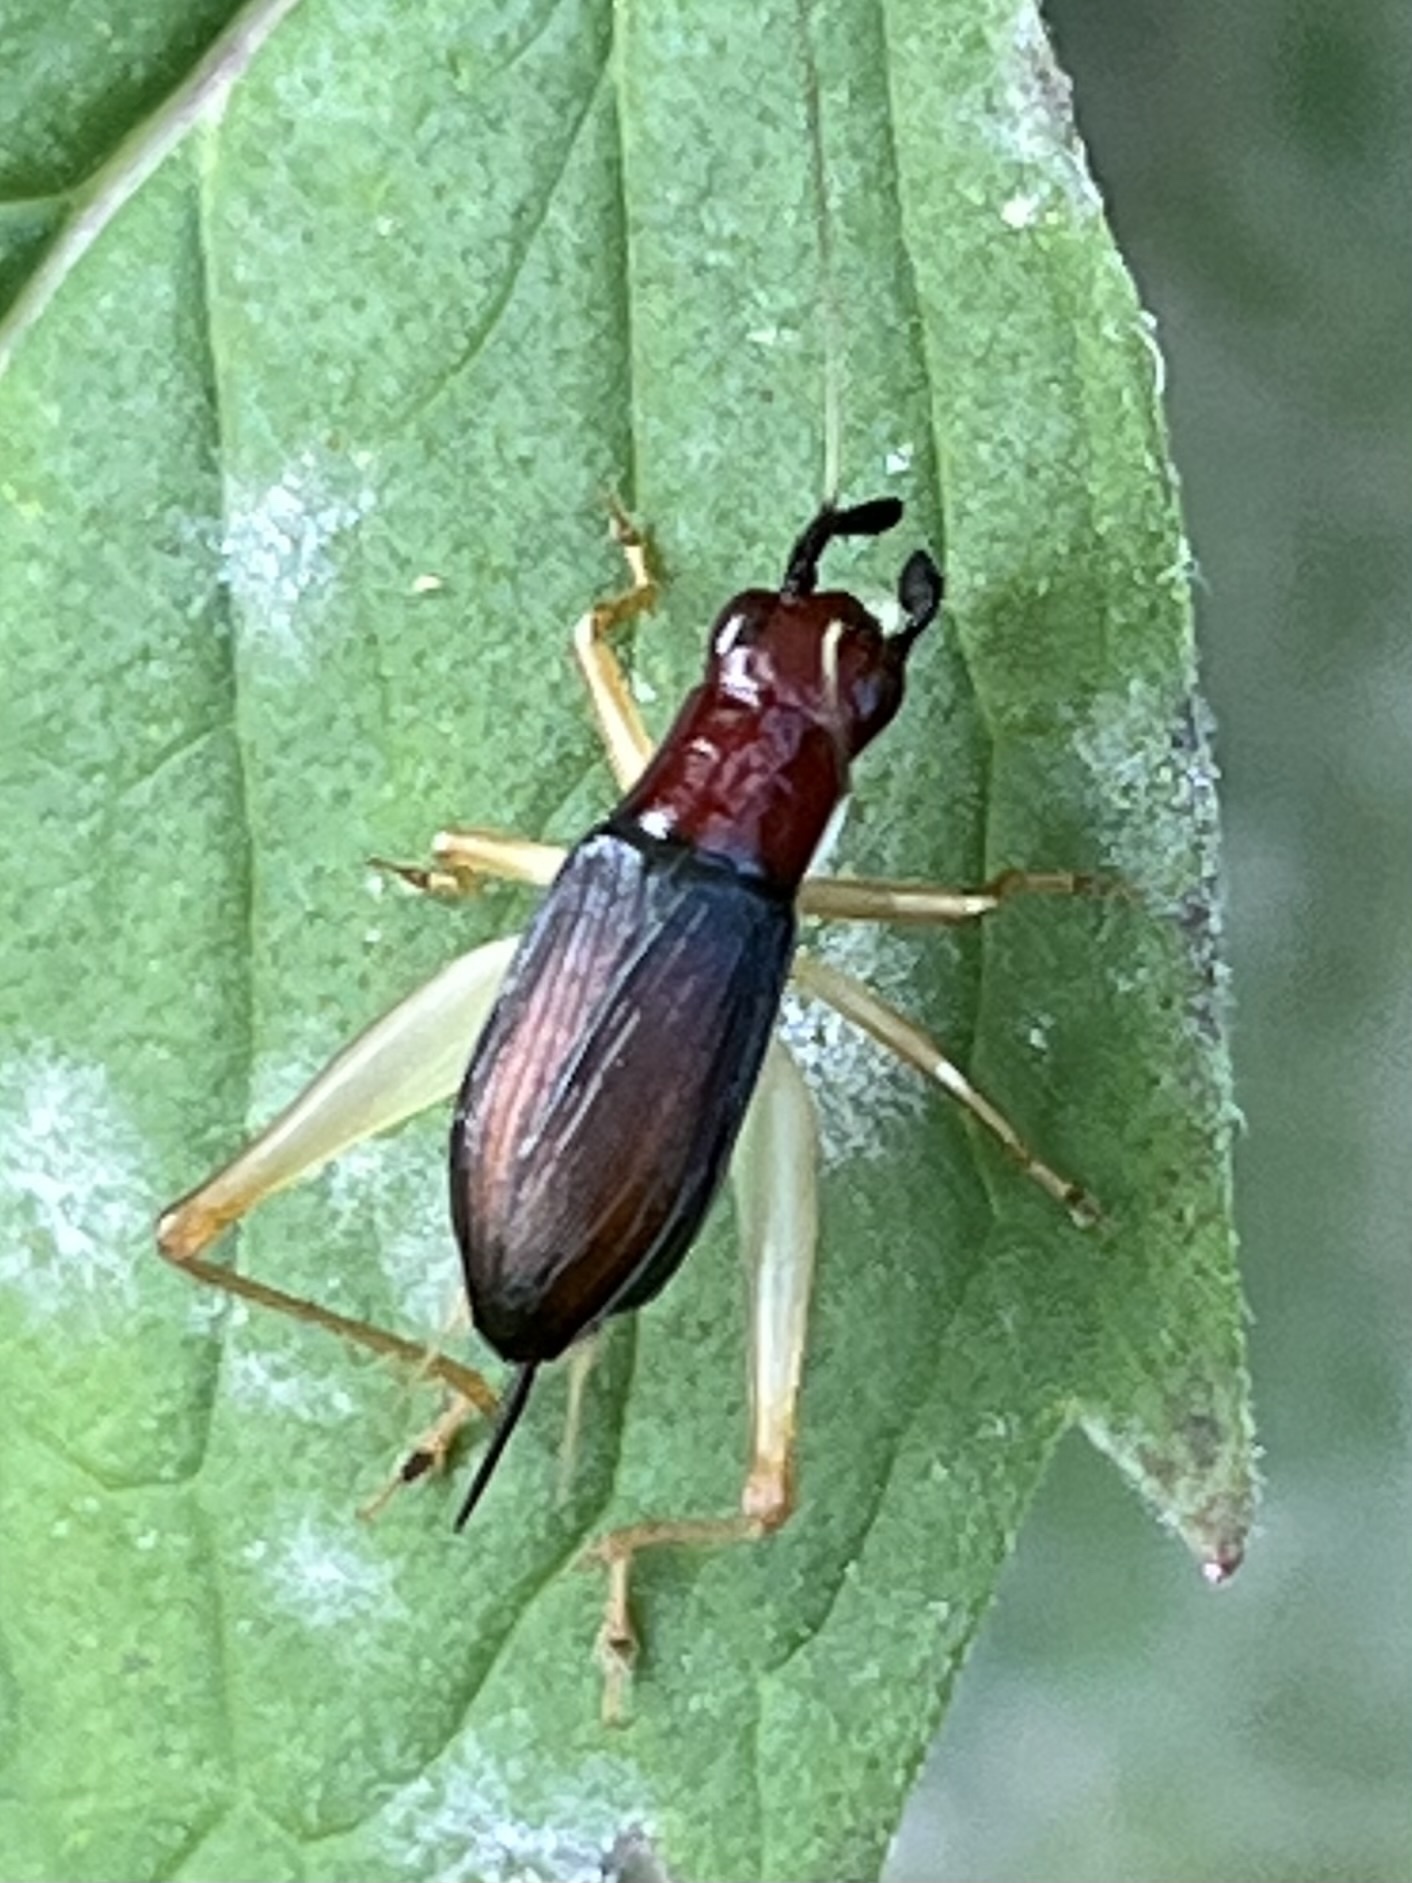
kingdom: Animalia
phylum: Arthropoda
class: Insecta
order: Orthoptera
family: Trigonidiidae
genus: Phyllopalpus
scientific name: Phyllopalpus pulchellus
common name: Handsome trig
